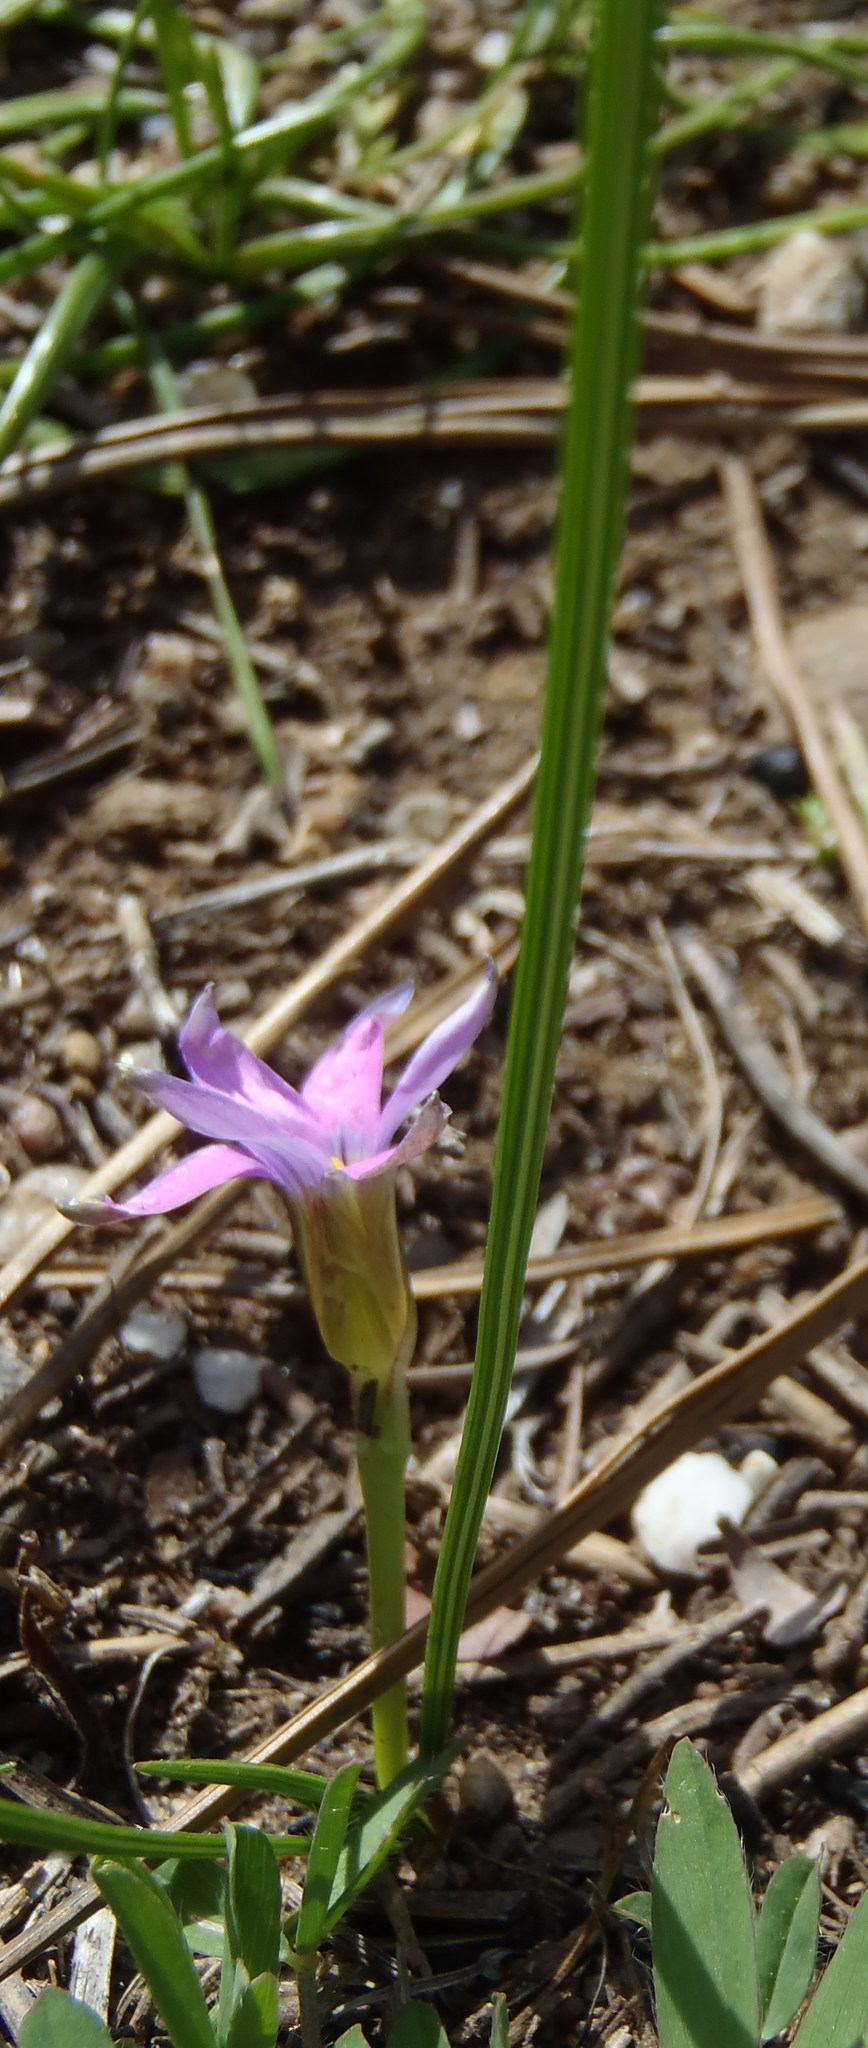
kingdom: Plantae
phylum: Tracheophyta
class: Liliopsida
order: Asparagales
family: Iridaceae
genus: Romulea
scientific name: Romulea rosea
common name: Oniongrass
